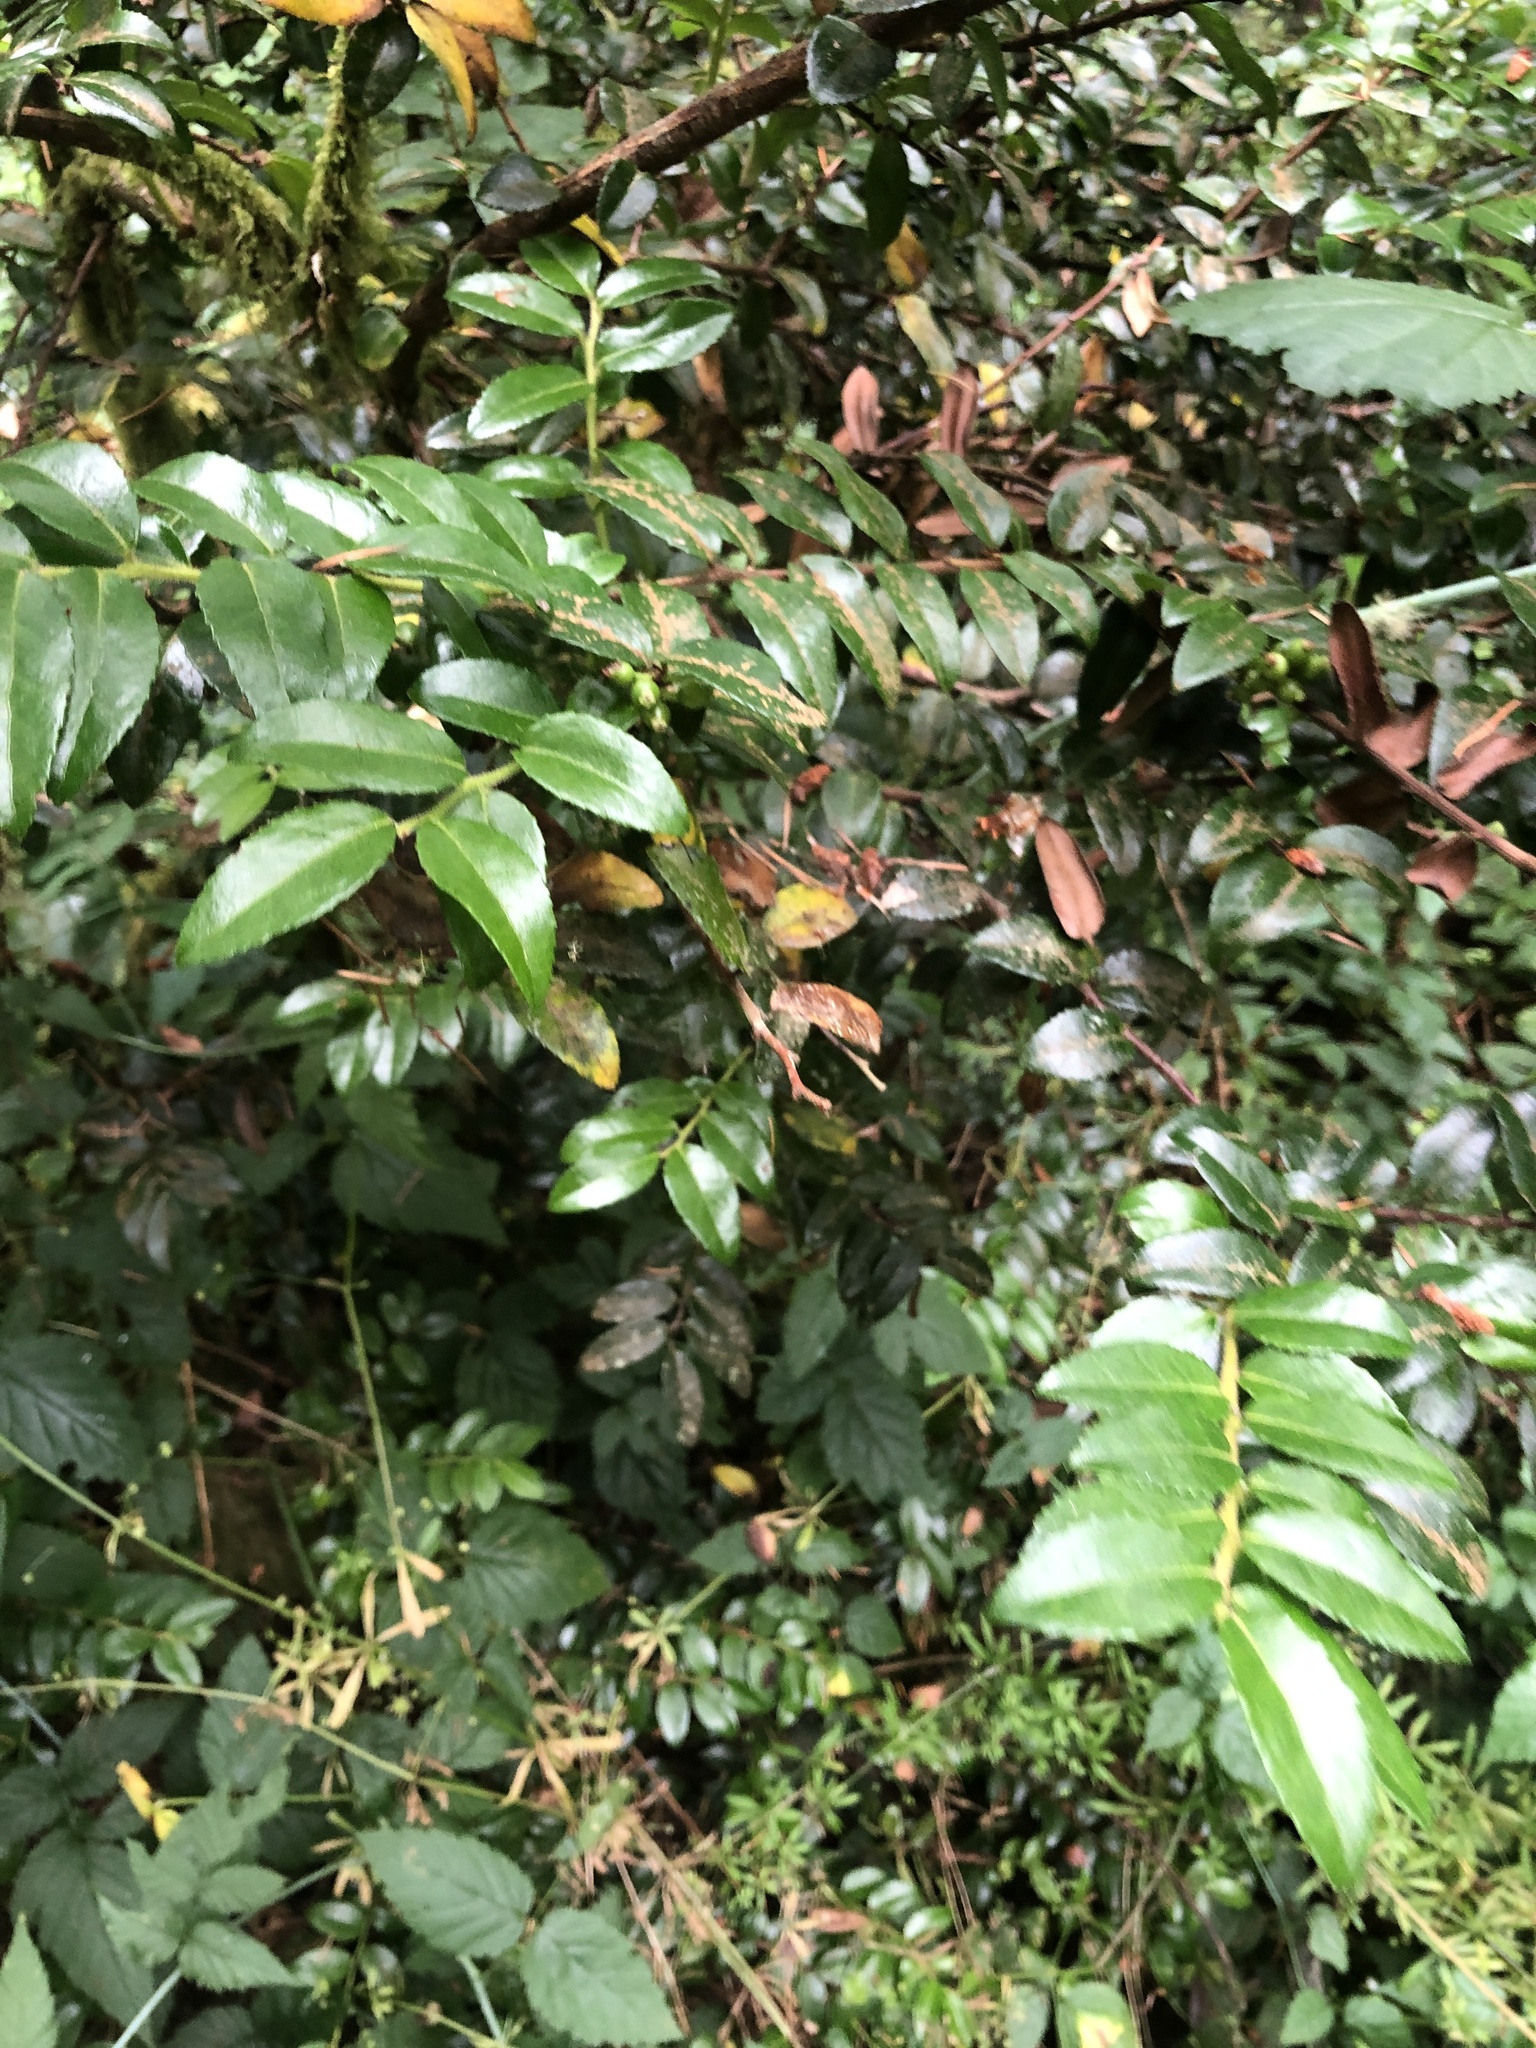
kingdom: Plantae
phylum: Tracheophyta
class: Magnoliopsida
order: Ericales
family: Ericaceae
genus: Vaccinium
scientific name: Vaccinium ovatum
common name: California-huckleberry
